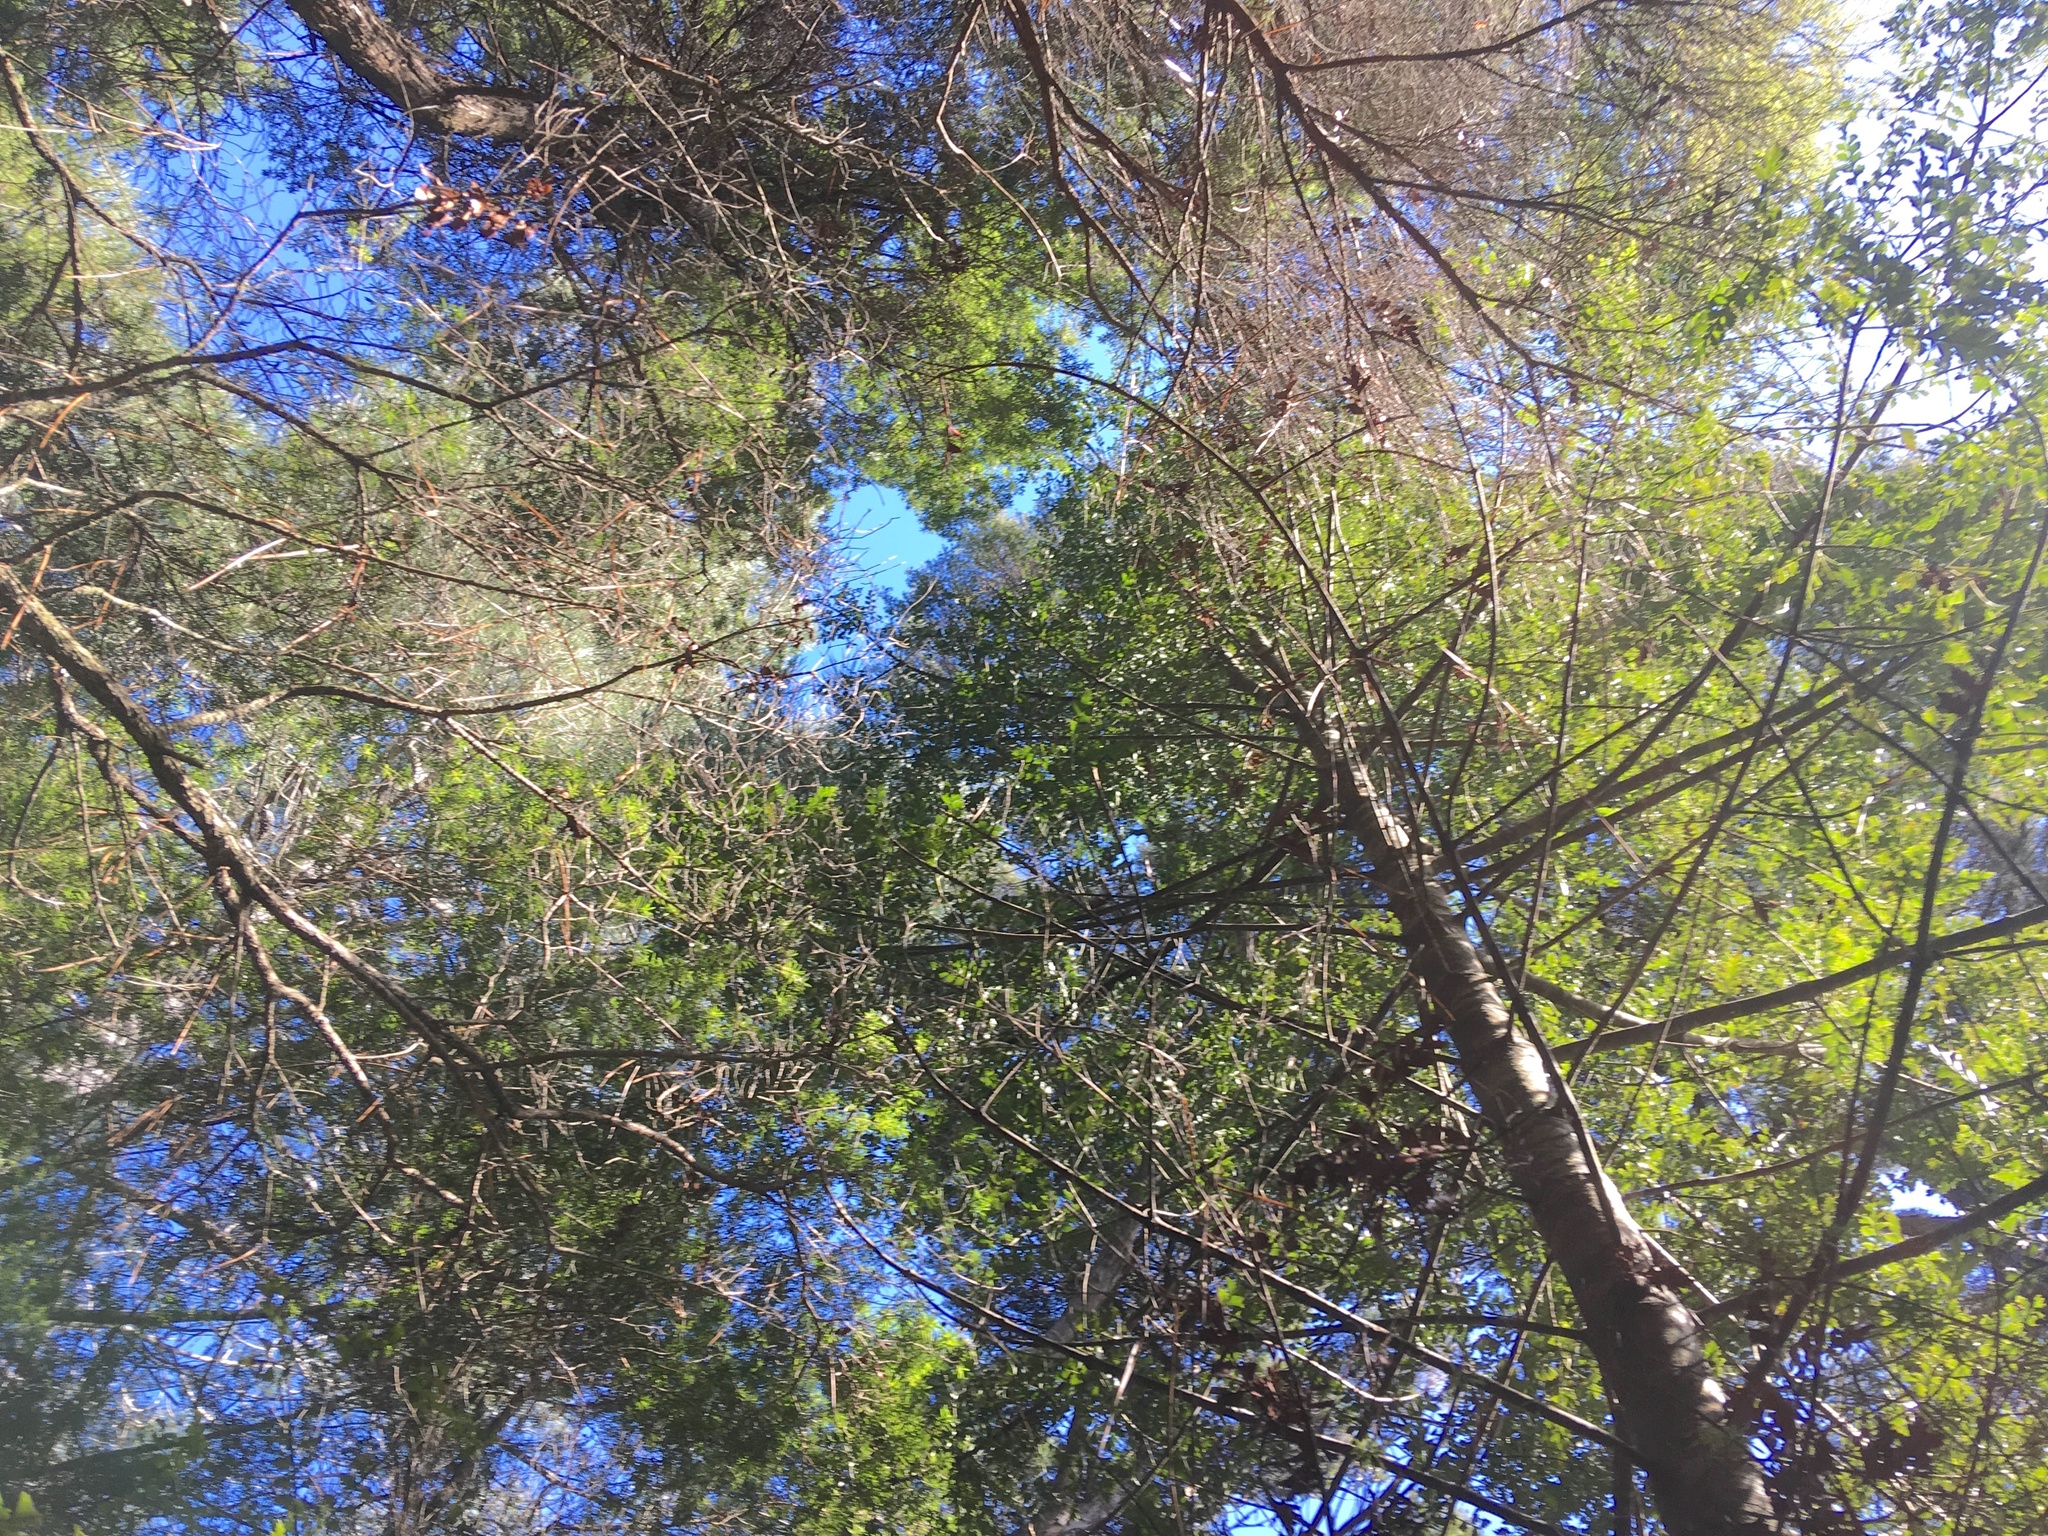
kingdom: Plantae
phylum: Tracheophyta
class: Pinopsida
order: Pinales
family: Phyllocladaceae
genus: Phyllocladus
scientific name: Phyllocladus trichomanoides
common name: Celery pine
